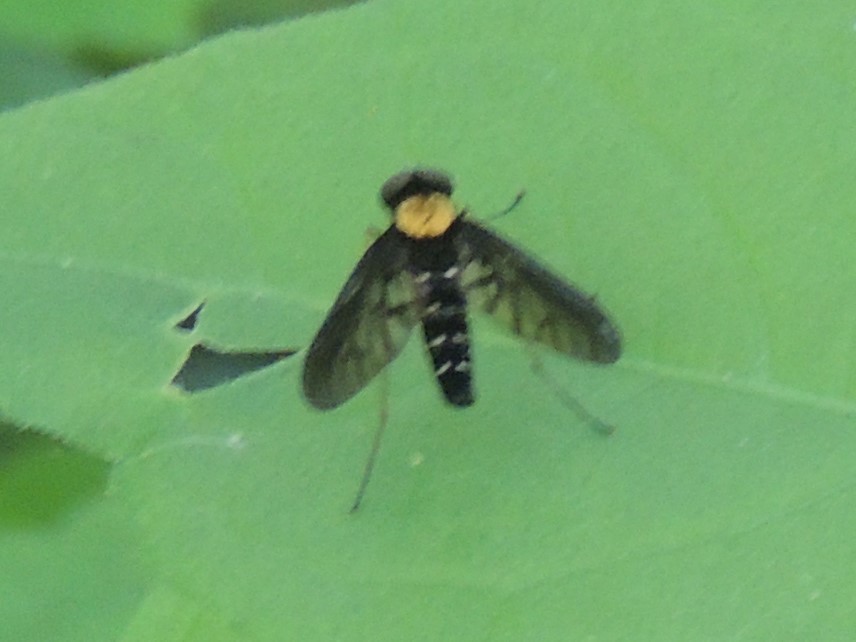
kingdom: Animalia
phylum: Arthropoda
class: Insecta
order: Diptera
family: Rhagionidae
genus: Chrysopilus
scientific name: Chrysopilus thoracicus
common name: Golden-backed snipe fly
